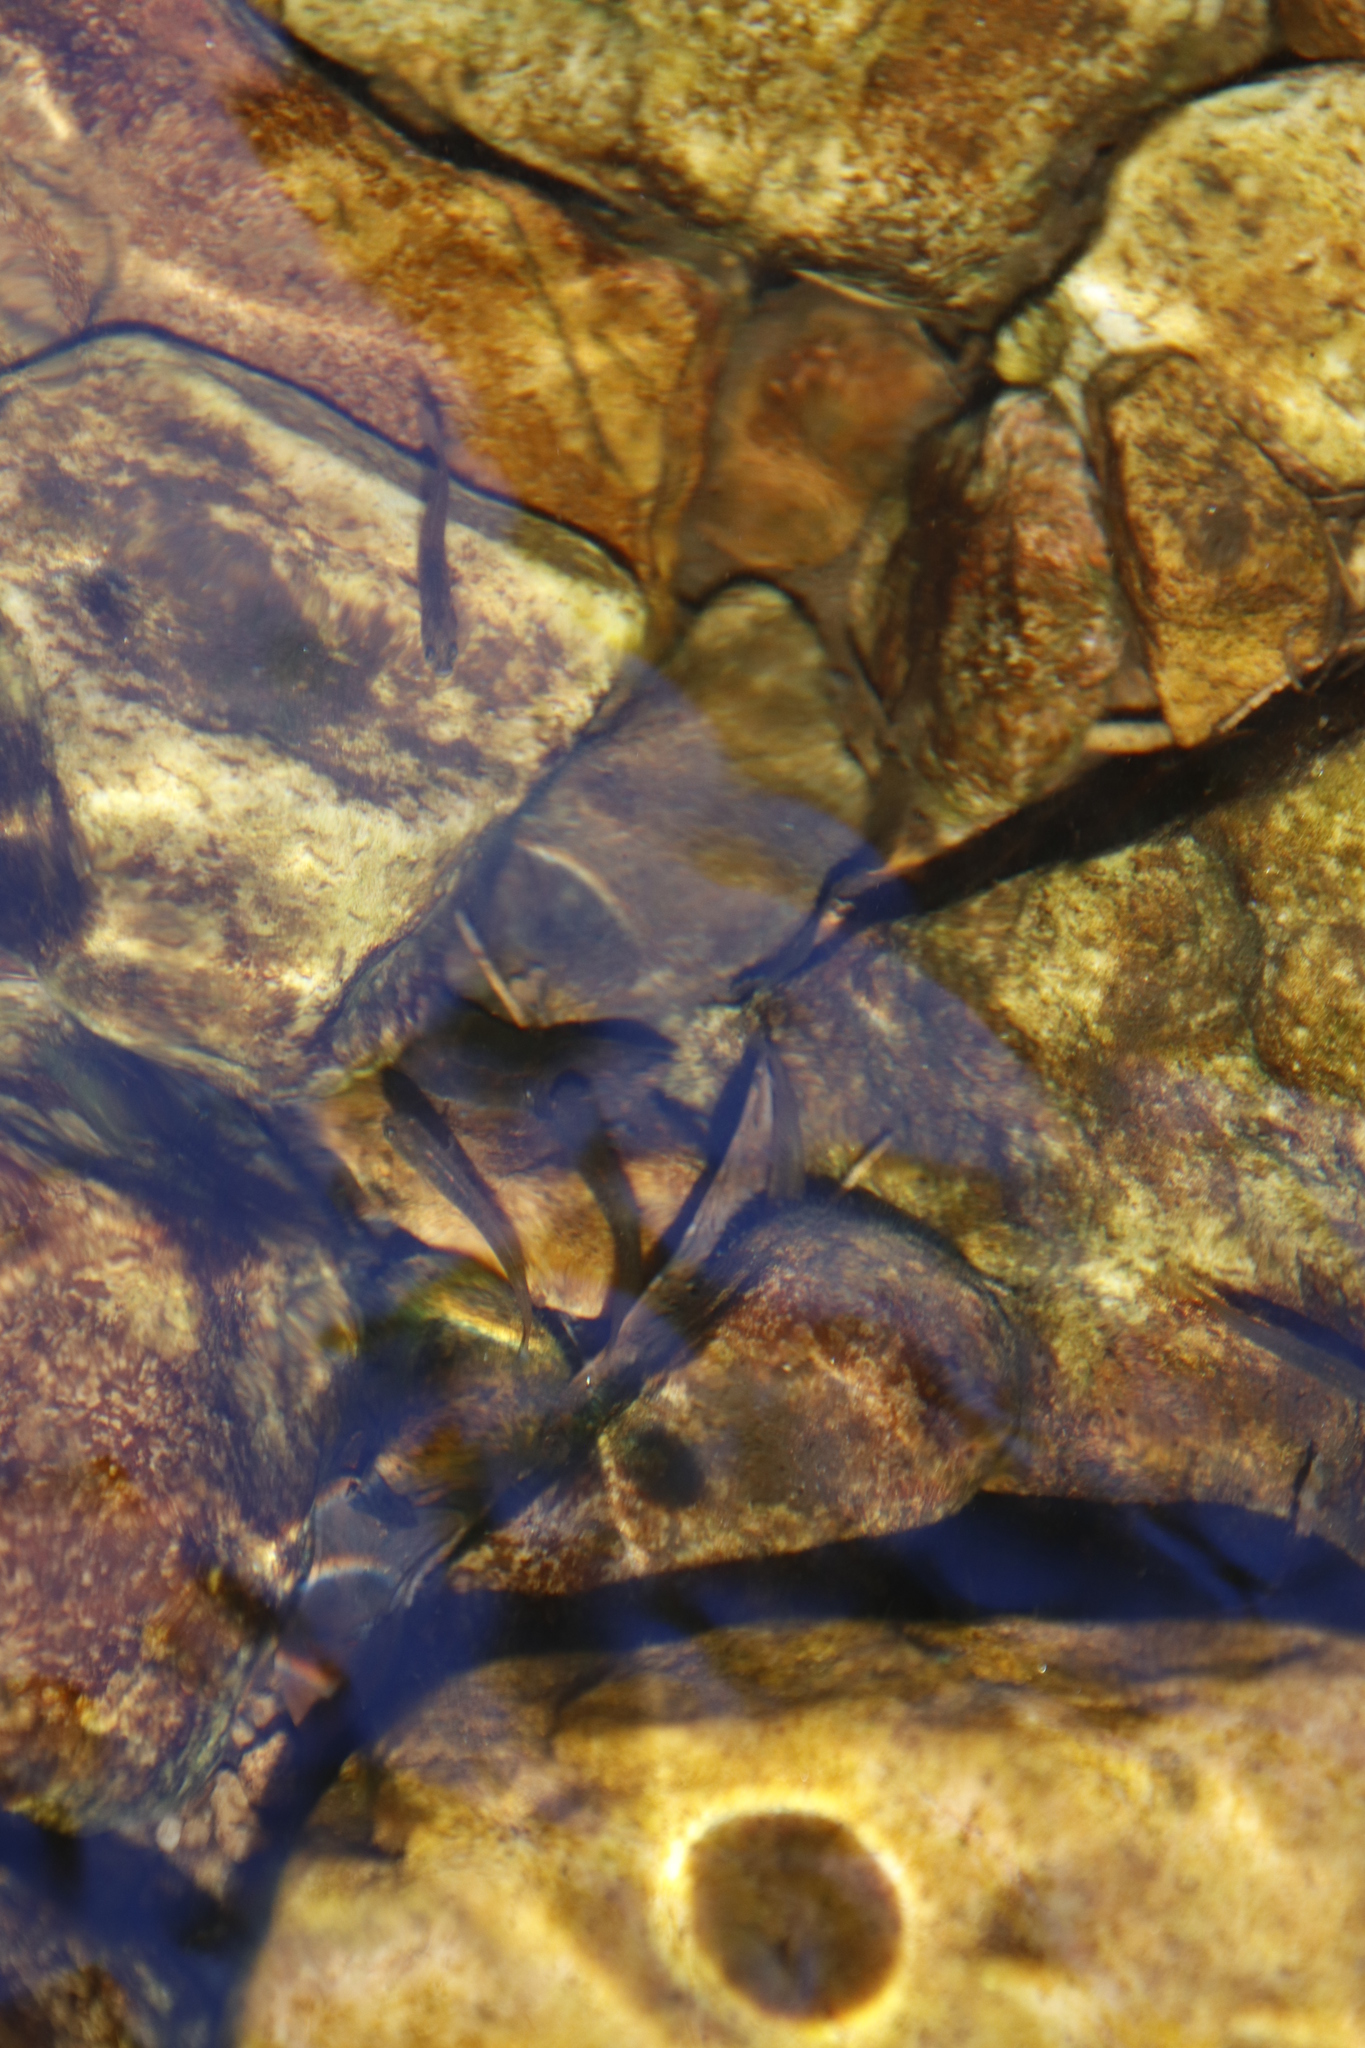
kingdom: Animalia
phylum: Chordata
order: Osmeriformes
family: Galaxiidae
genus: Galaxias
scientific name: Galaxias zebratus
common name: Cape galaxias
